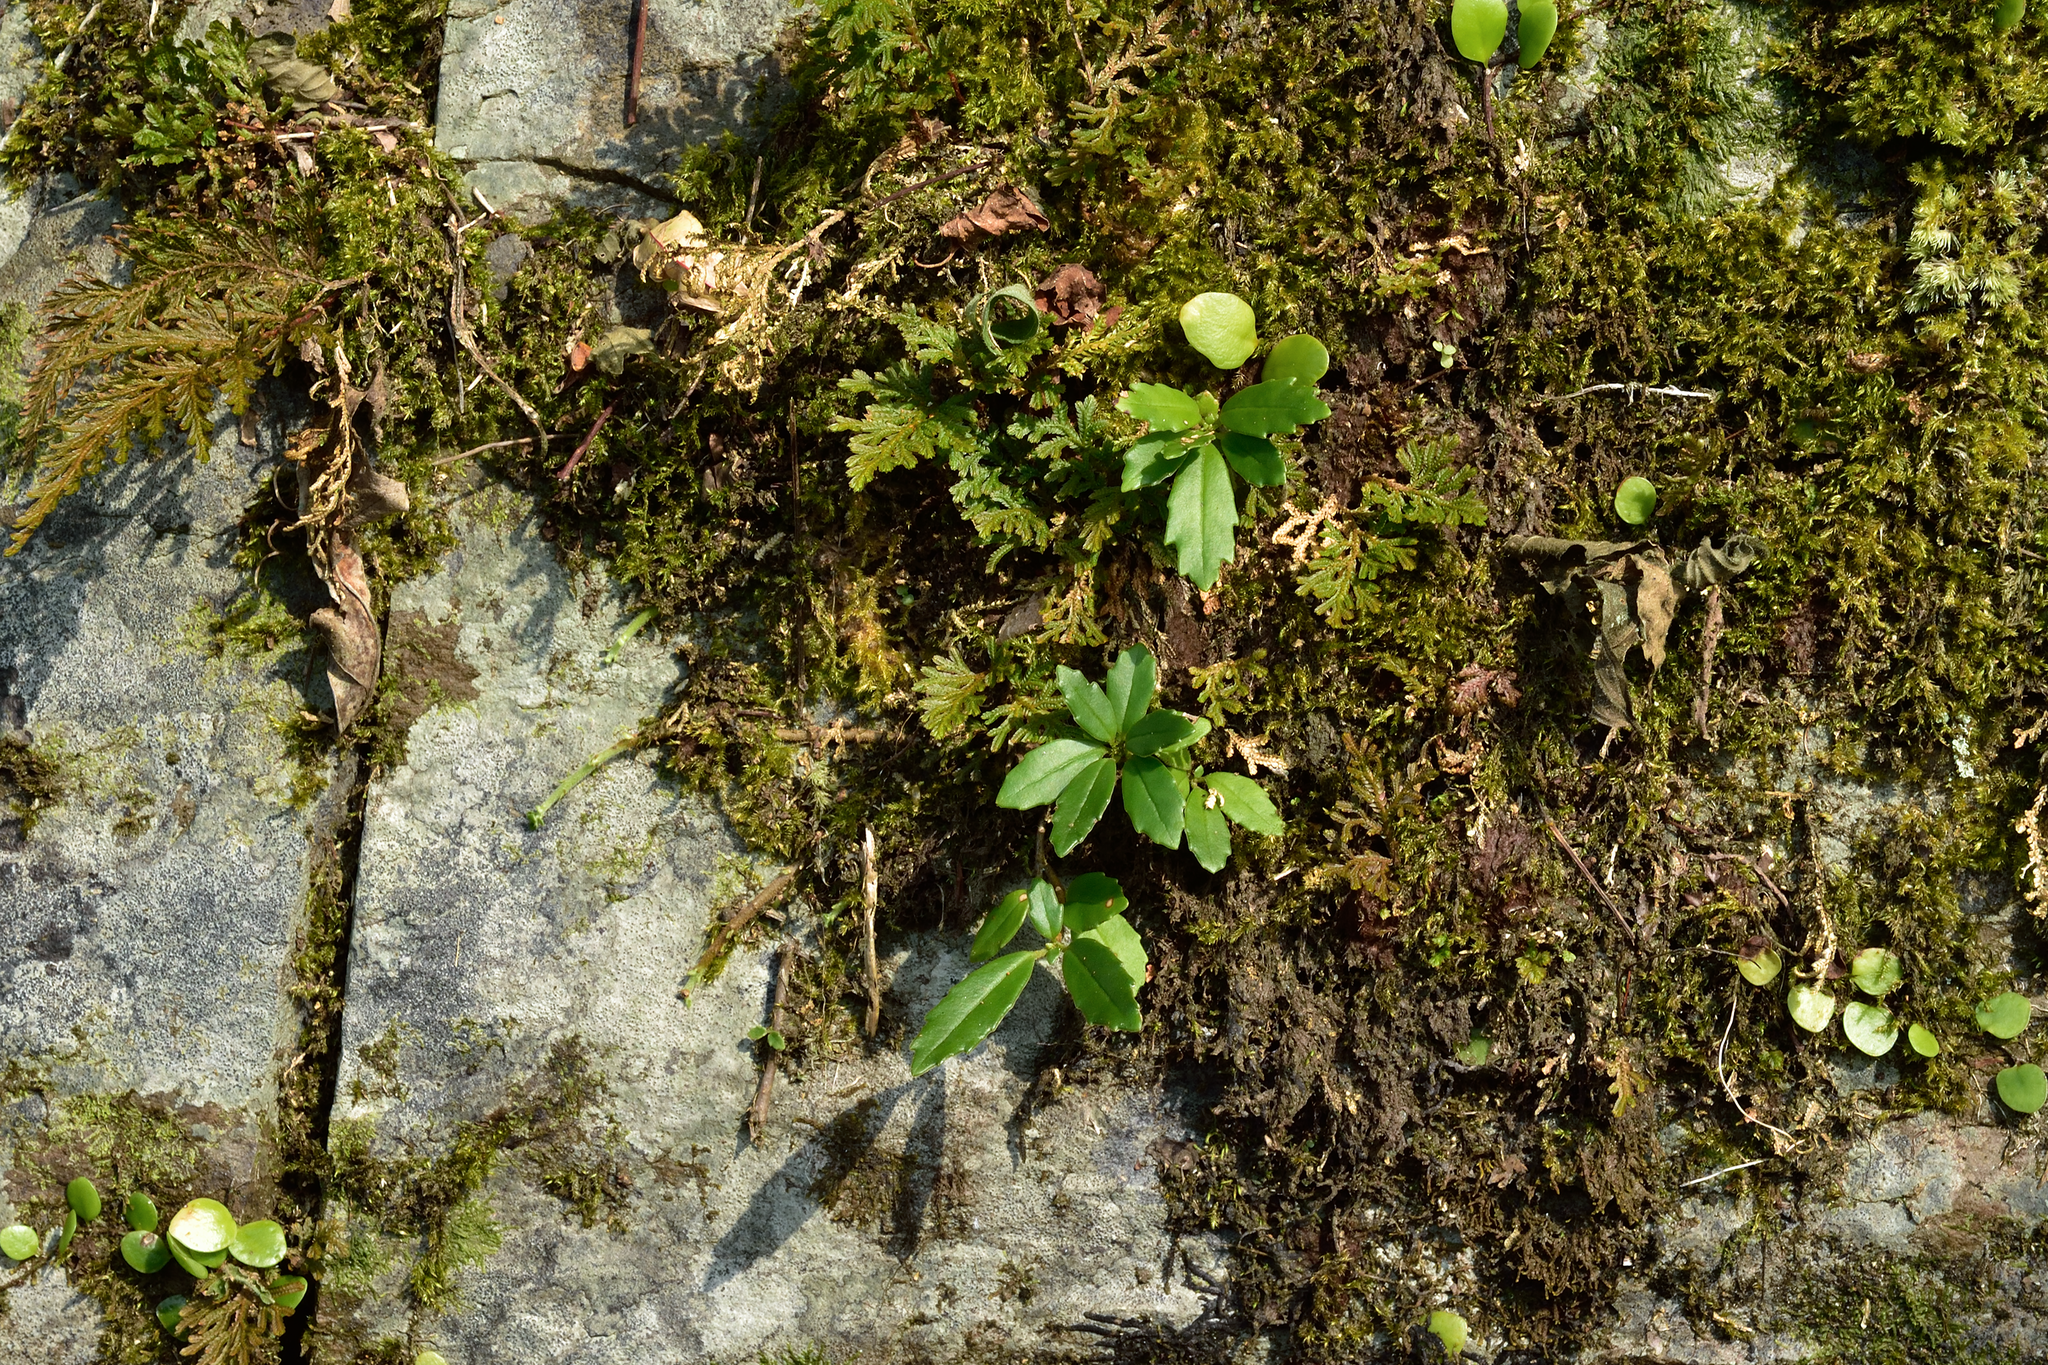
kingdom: Plantae
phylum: Tracheophyta
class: Magnoliopsida
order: Lamiales
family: Gesneriaceae
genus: Lysionotus
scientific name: Lysionotus pauciflorus
